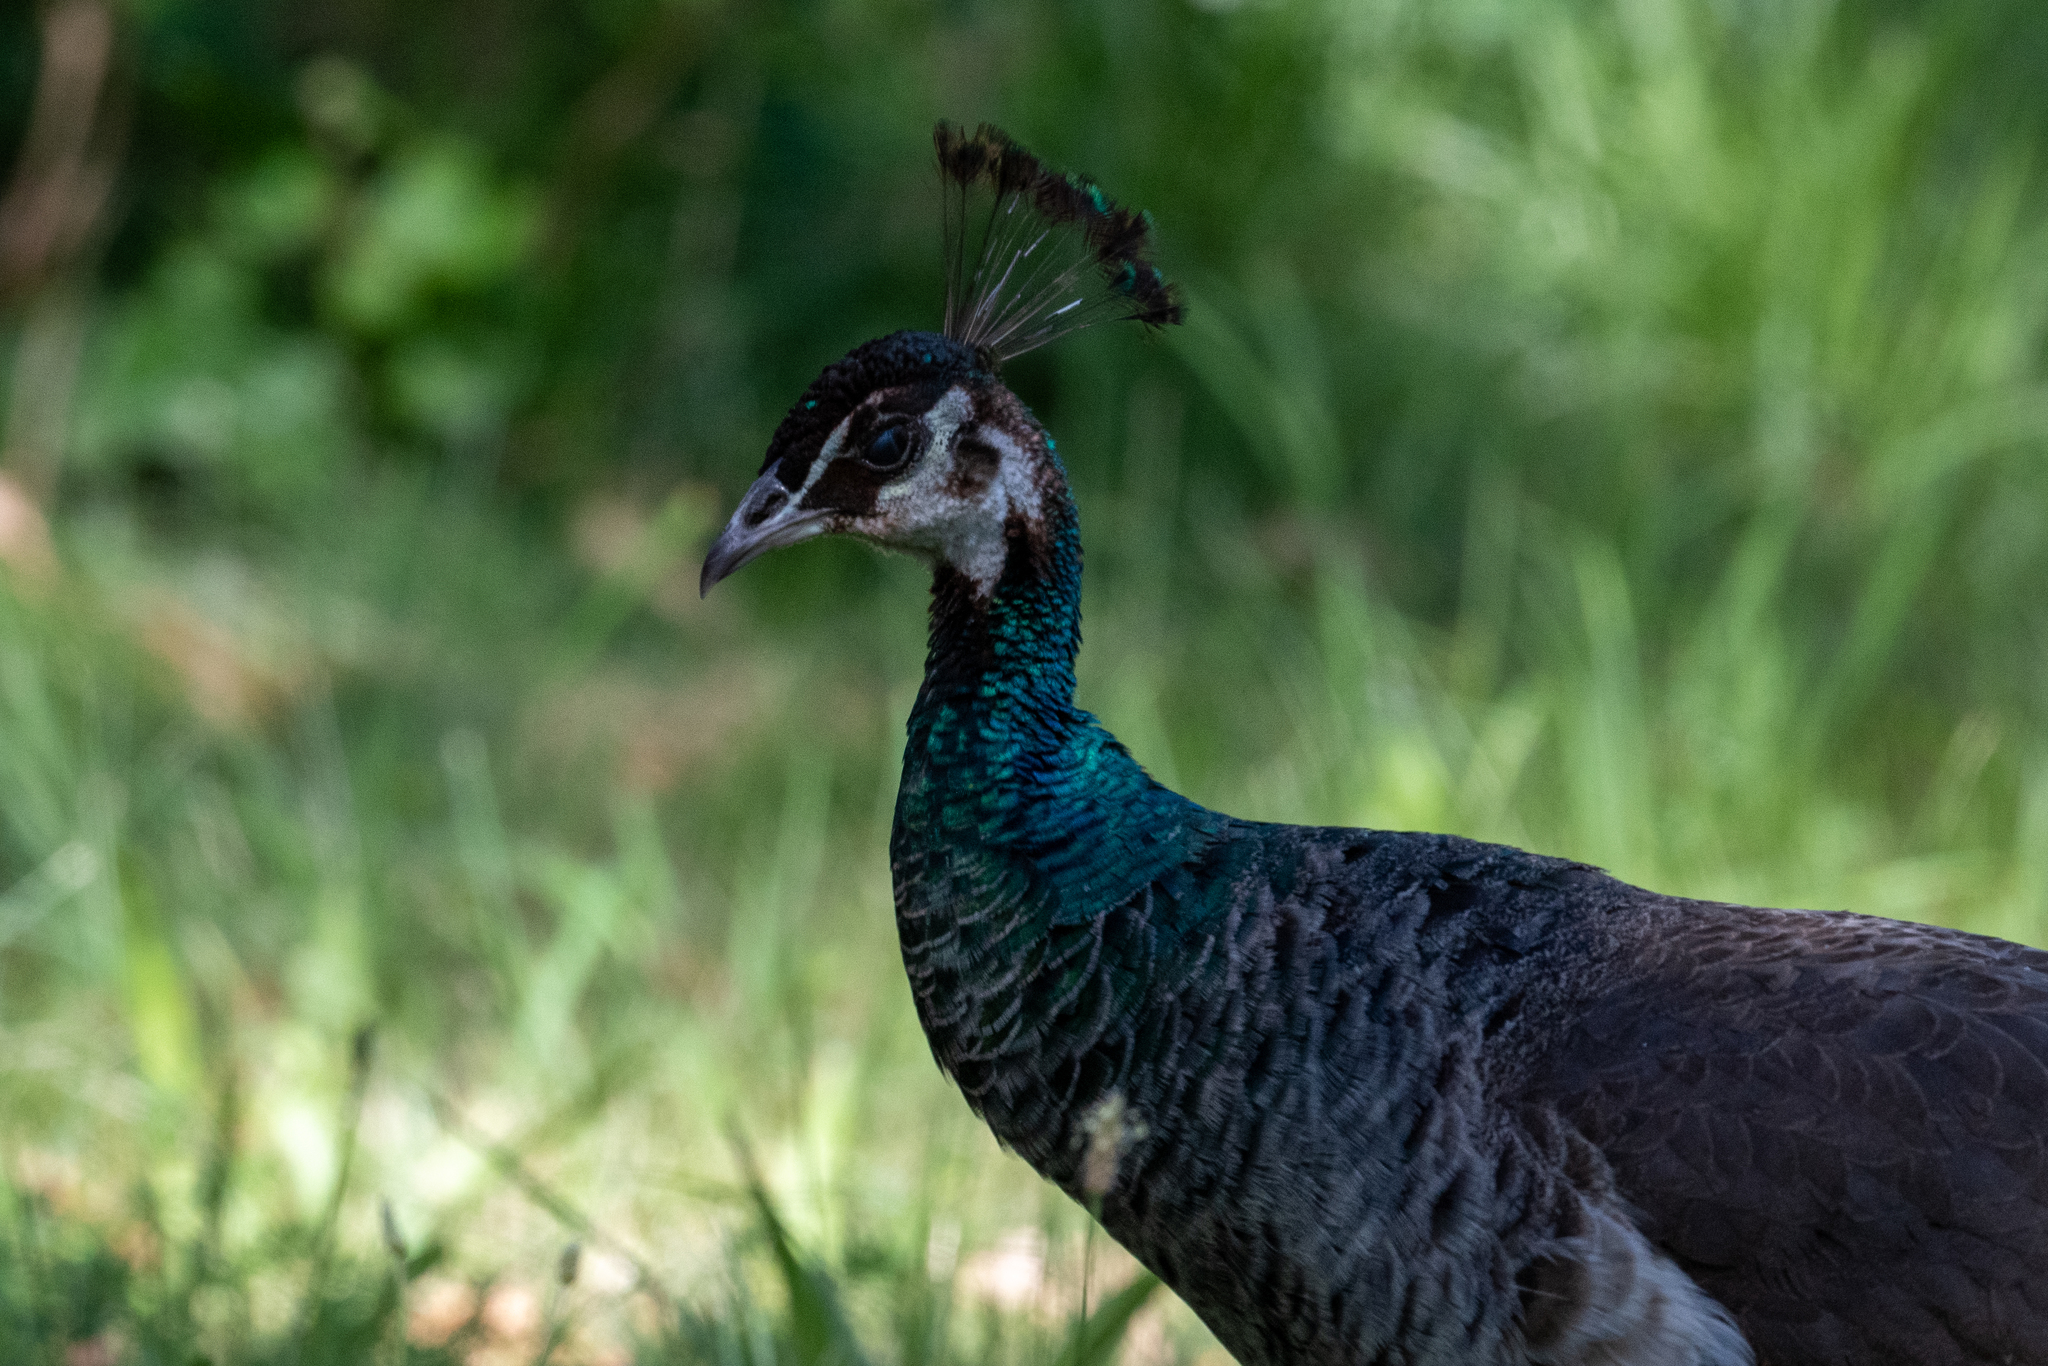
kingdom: Animalia
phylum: Chordata
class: Aves
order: Galliformes
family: Phasianidae
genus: Pavo
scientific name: Pavo cristatus
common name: Indian peafowl
